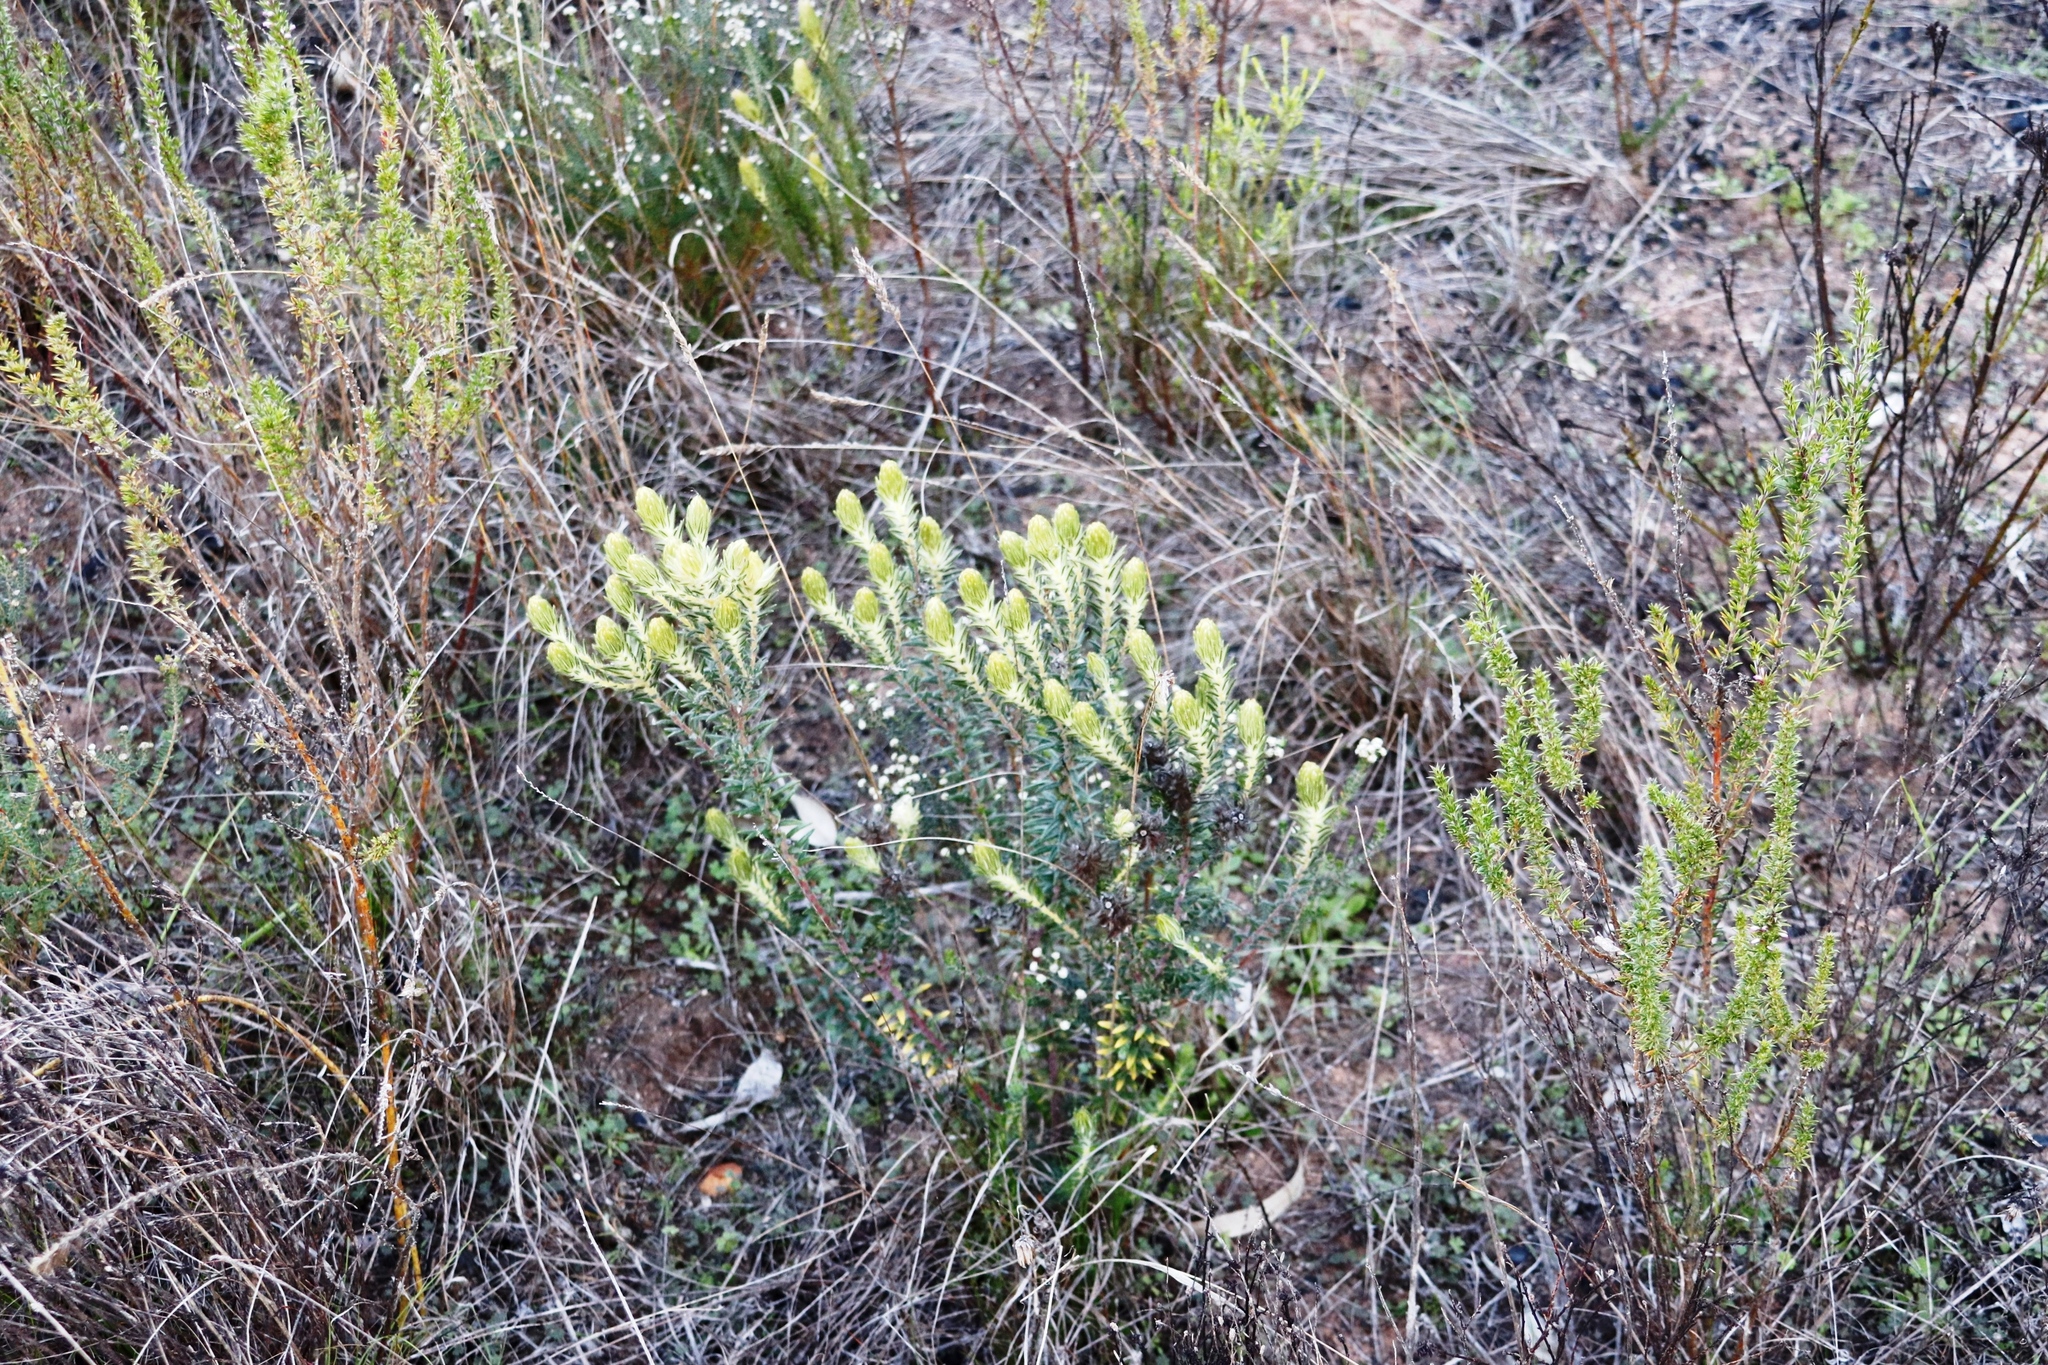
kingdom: Plantae
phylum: Tracheophyta
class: Magnoliopsida
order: Rosales
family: Rhamnaceae
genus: Phylica
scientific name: Phylica plumosa
